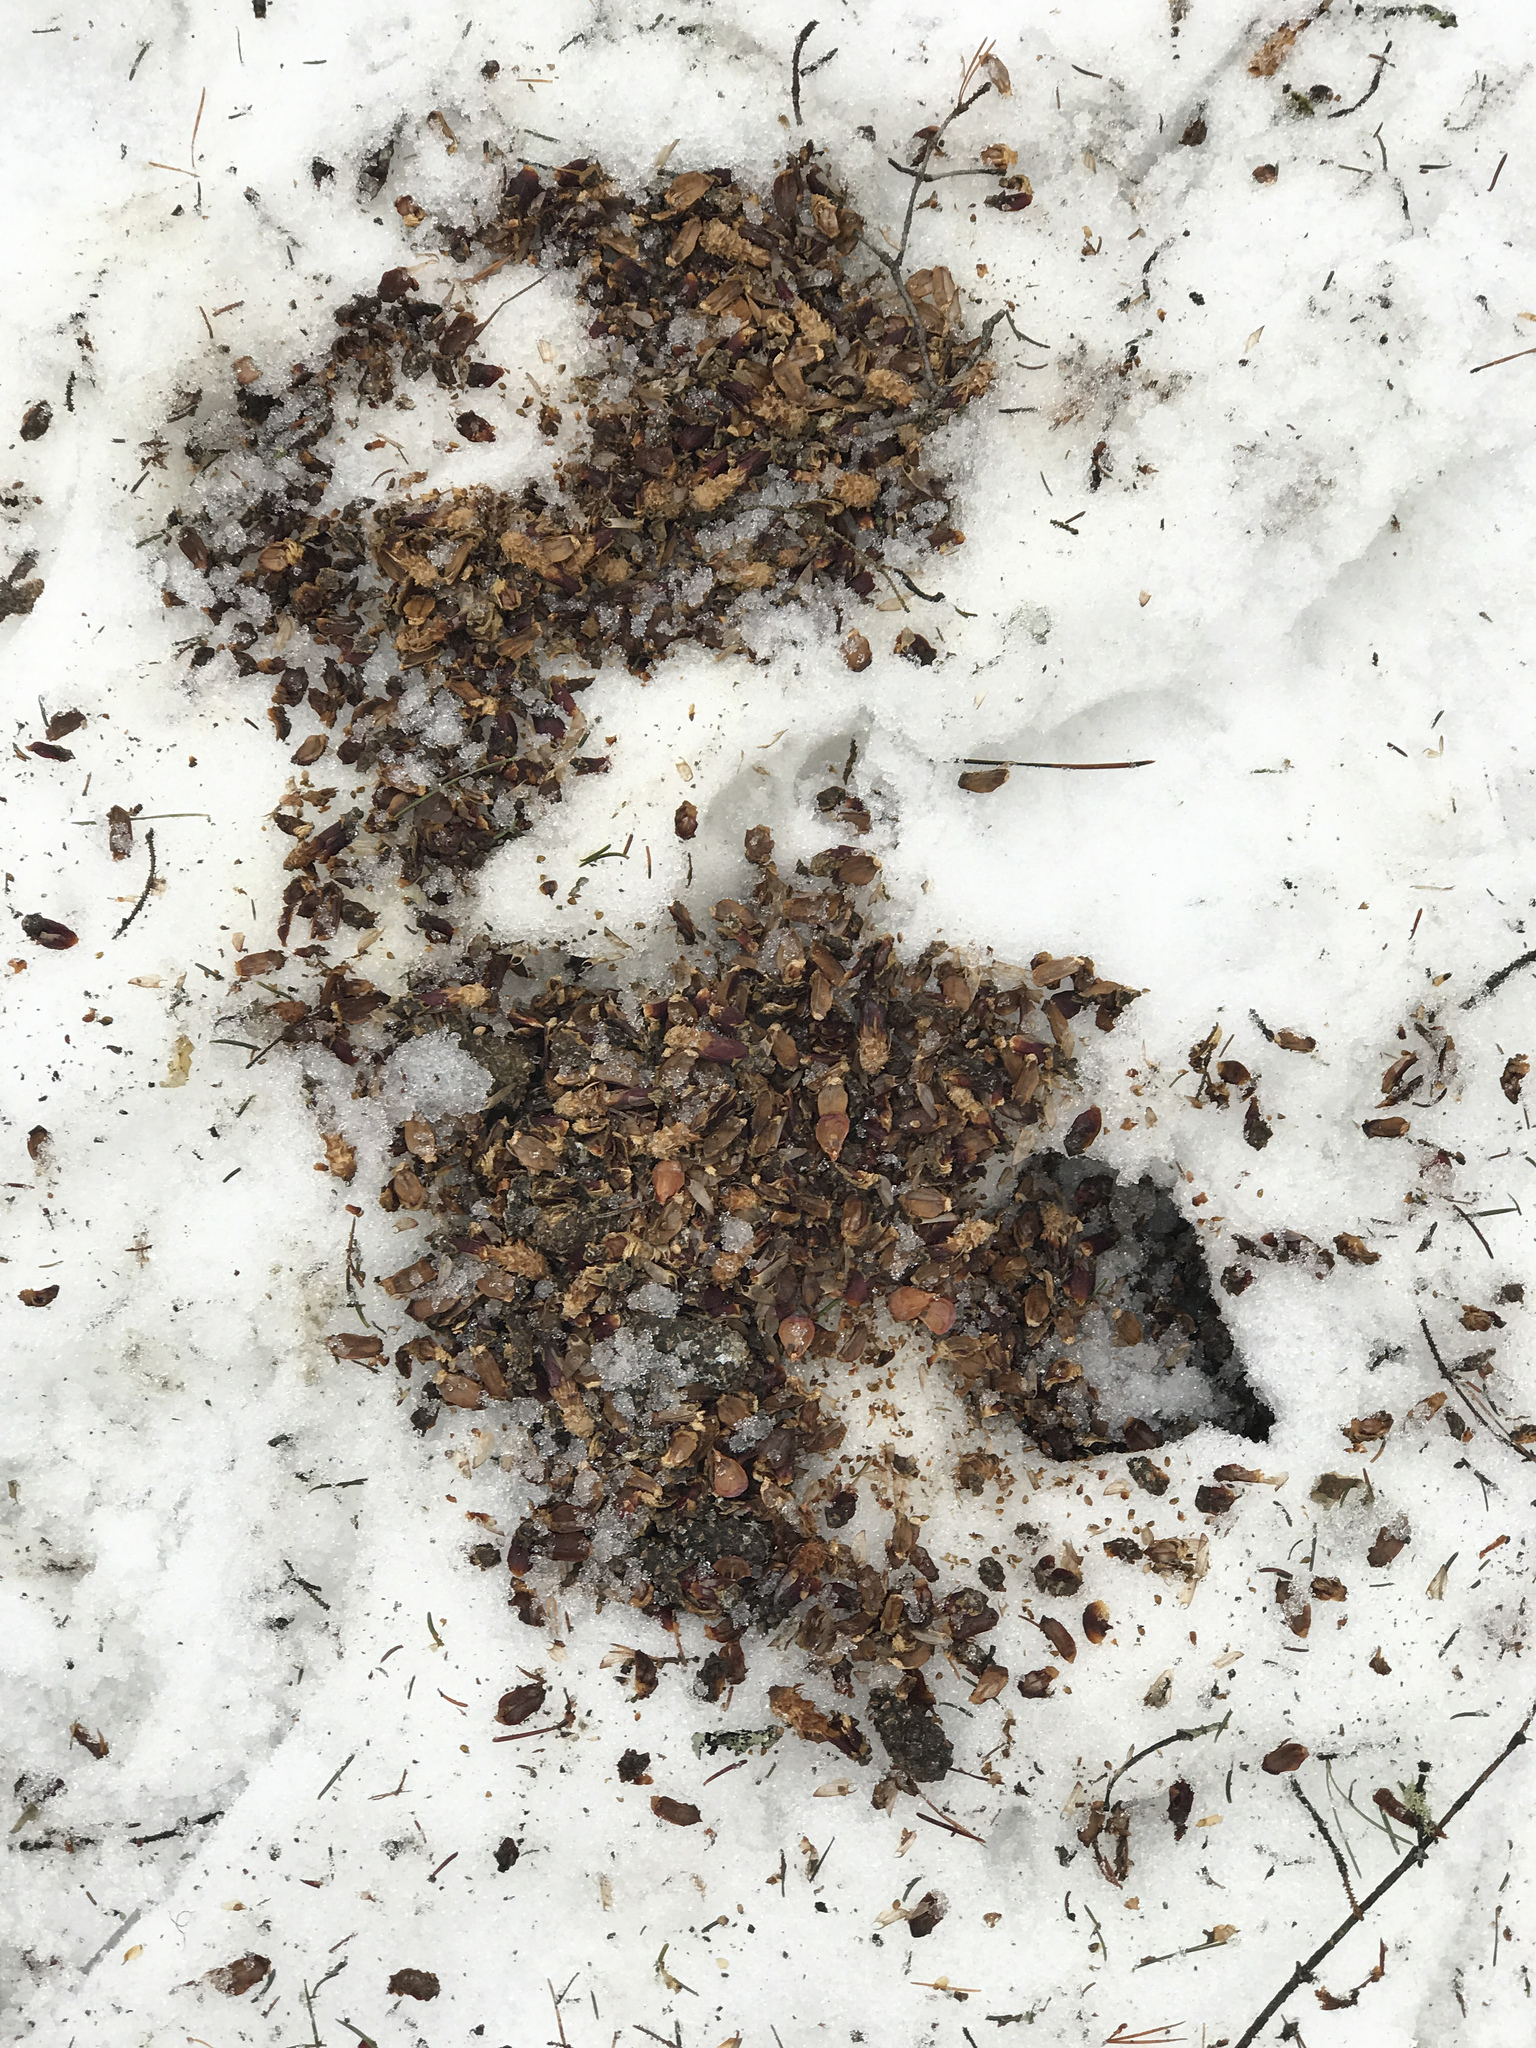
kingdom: Animalia
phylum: Chordata
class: Mammalia
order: Rodentia
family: Sciuridae
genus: Tamiasciurus
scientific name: Tamiasciurus hudsonicus
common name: Red squirrel
